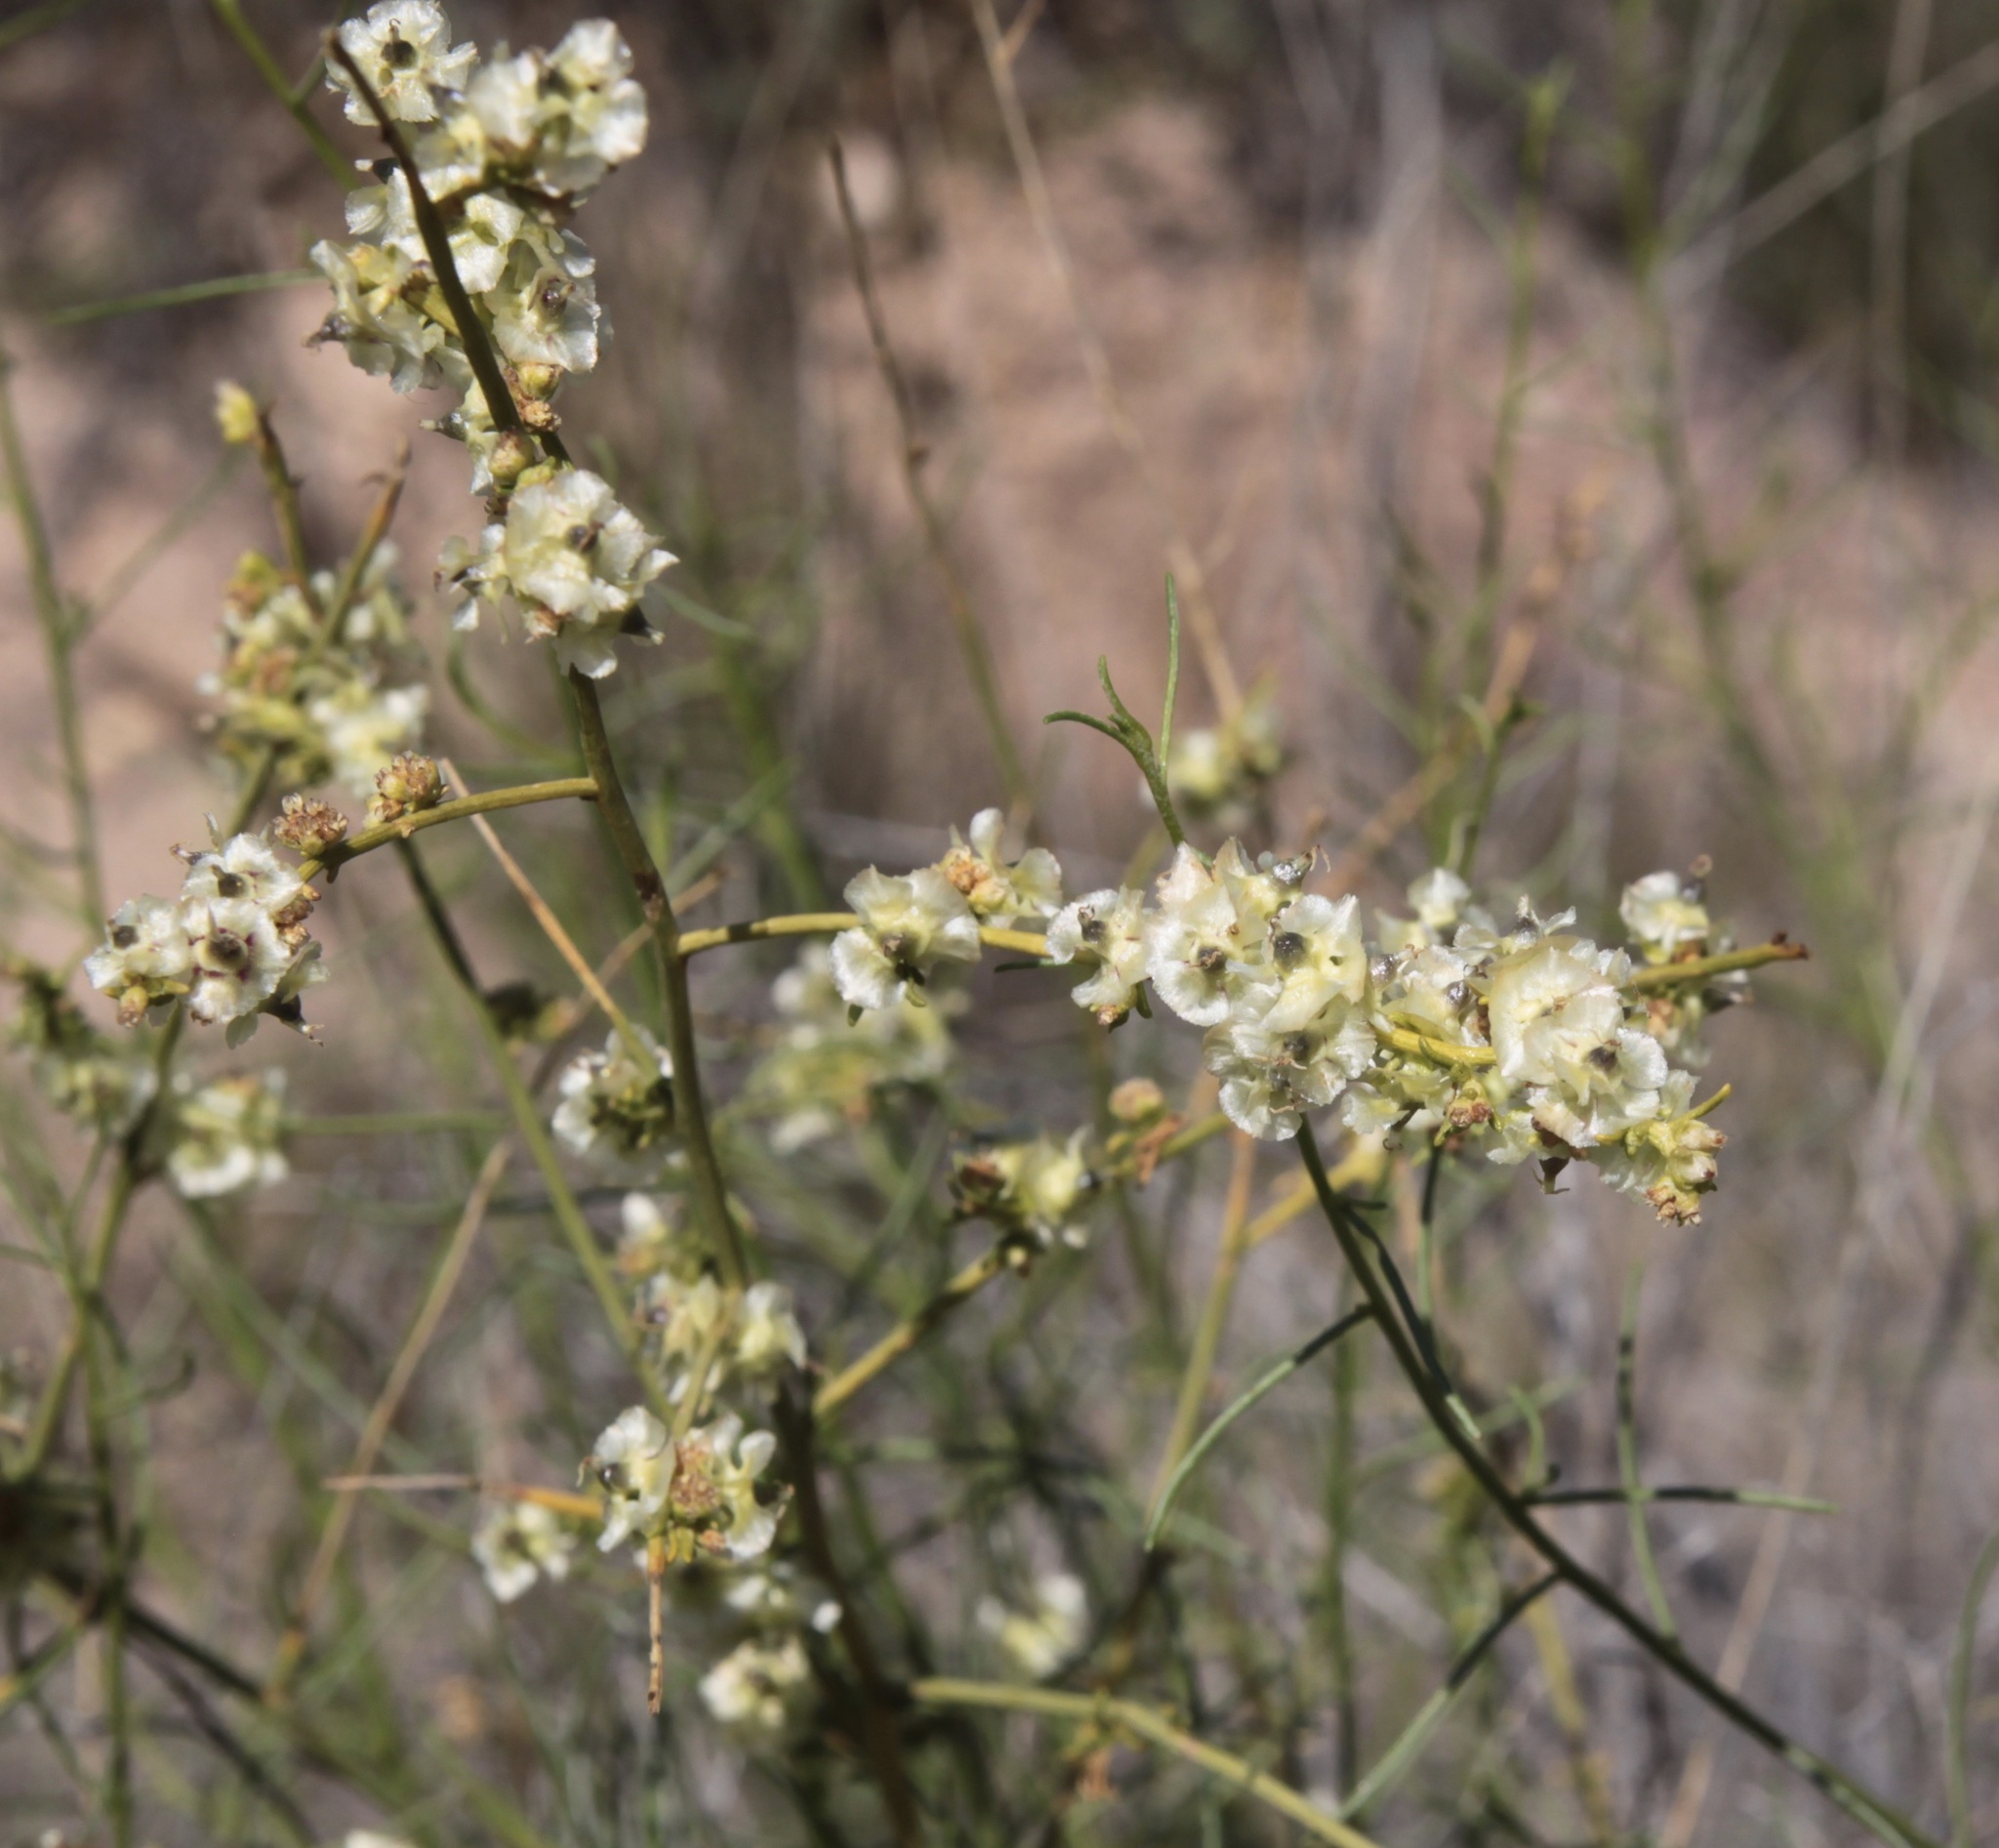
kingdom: Plantae
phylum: Tracheophyta
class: Magnoliopsida
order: Asterales
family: Asteraceae
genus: Ambrosia
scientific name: Ambrosia salsola
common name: Burrobrush
